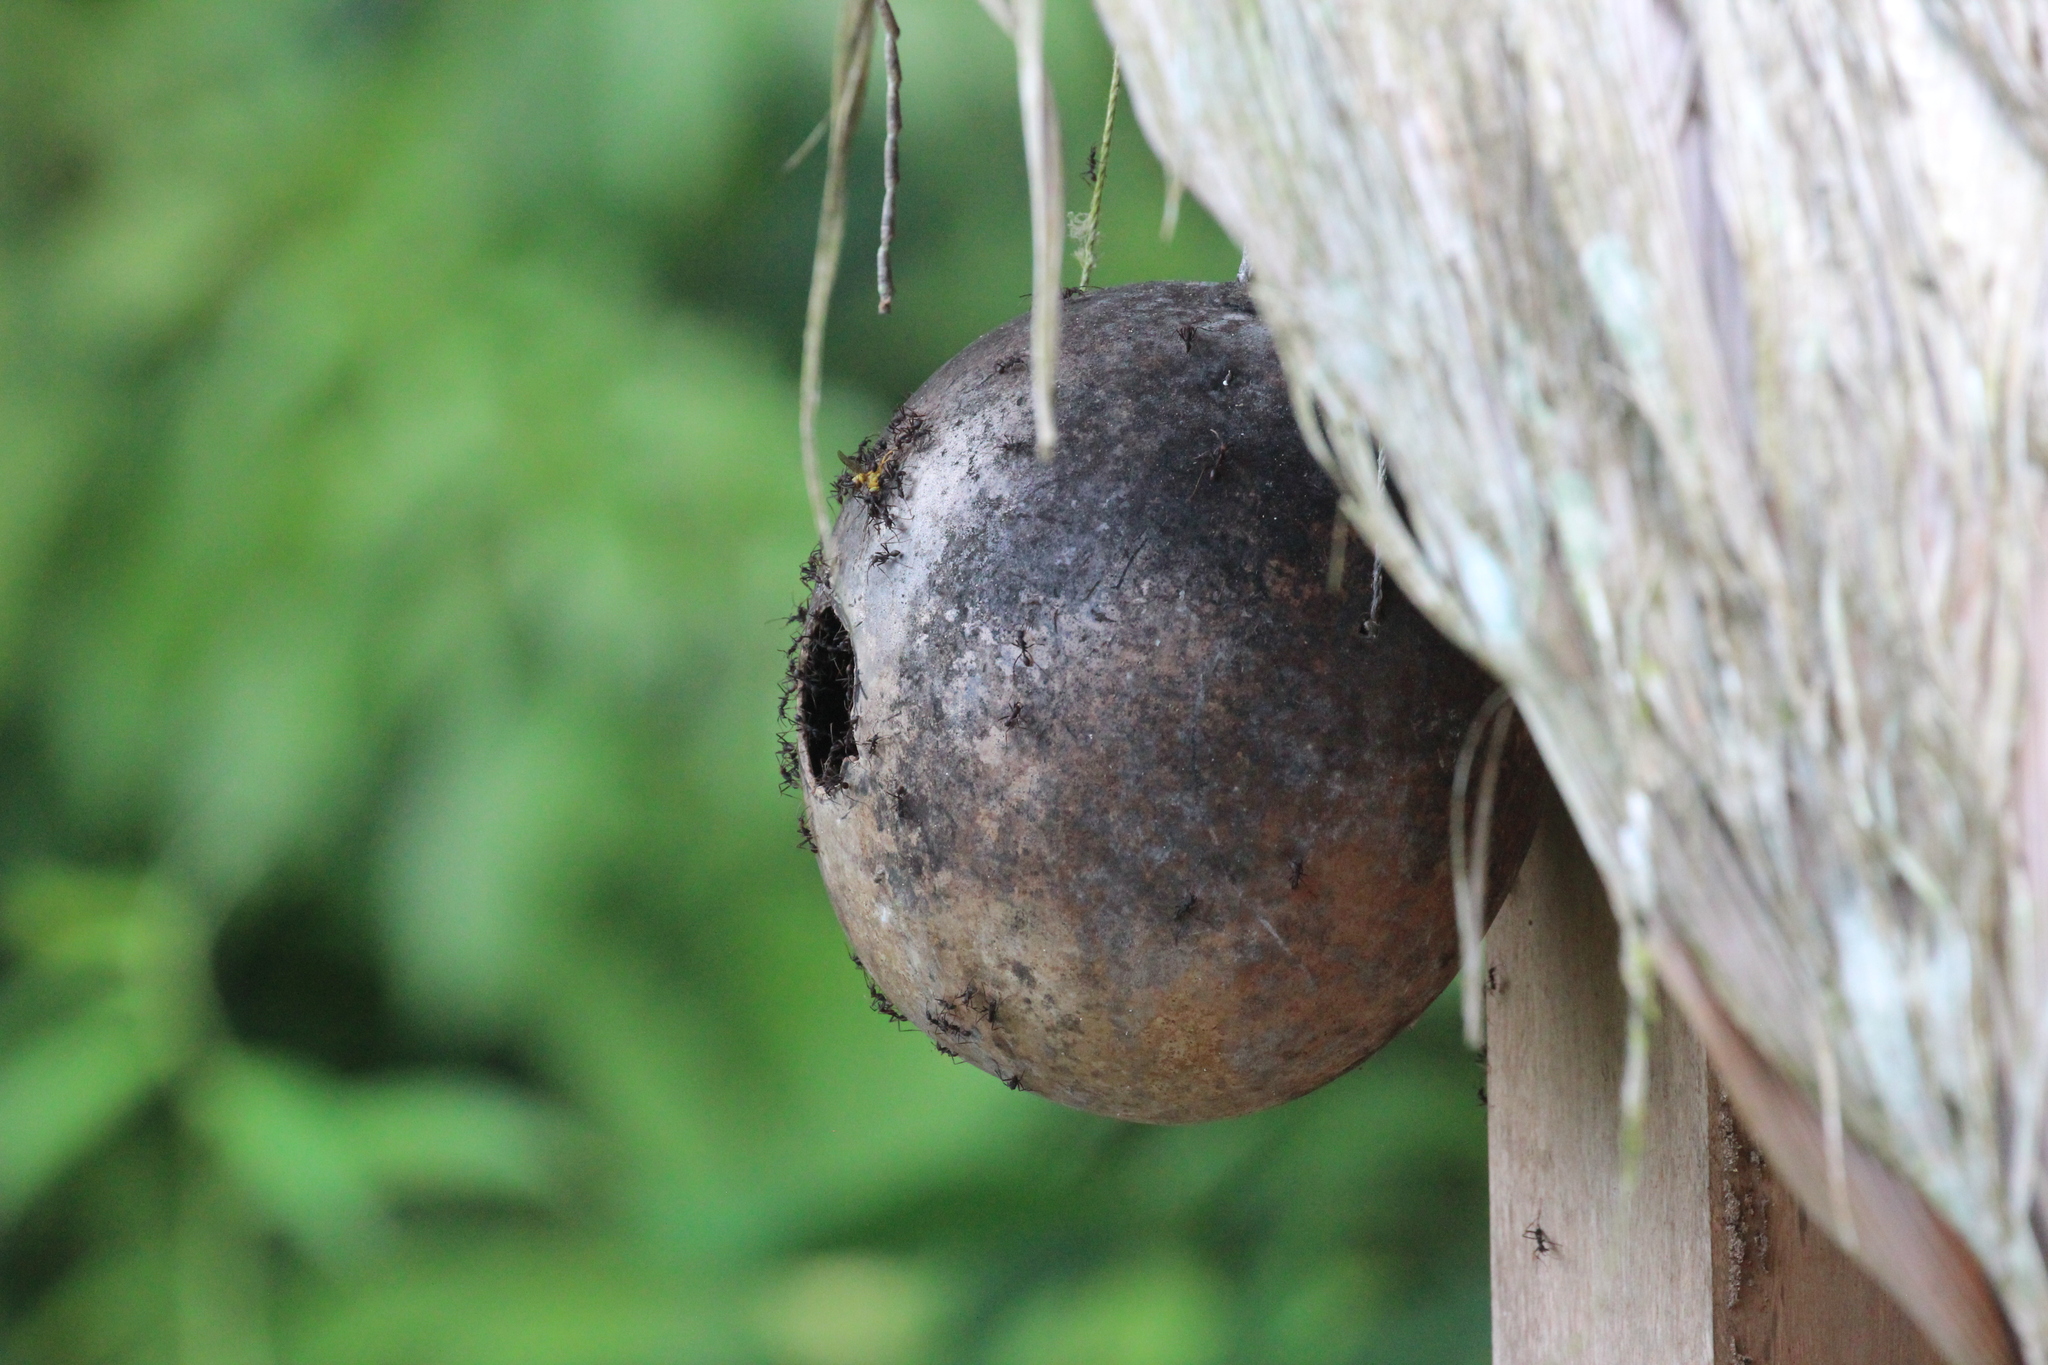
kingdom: Animalia
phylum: Arthropoda
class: Insecta
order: Hymenoptera
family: Formicidae
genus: Eciton
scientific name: Eciton burchellii
